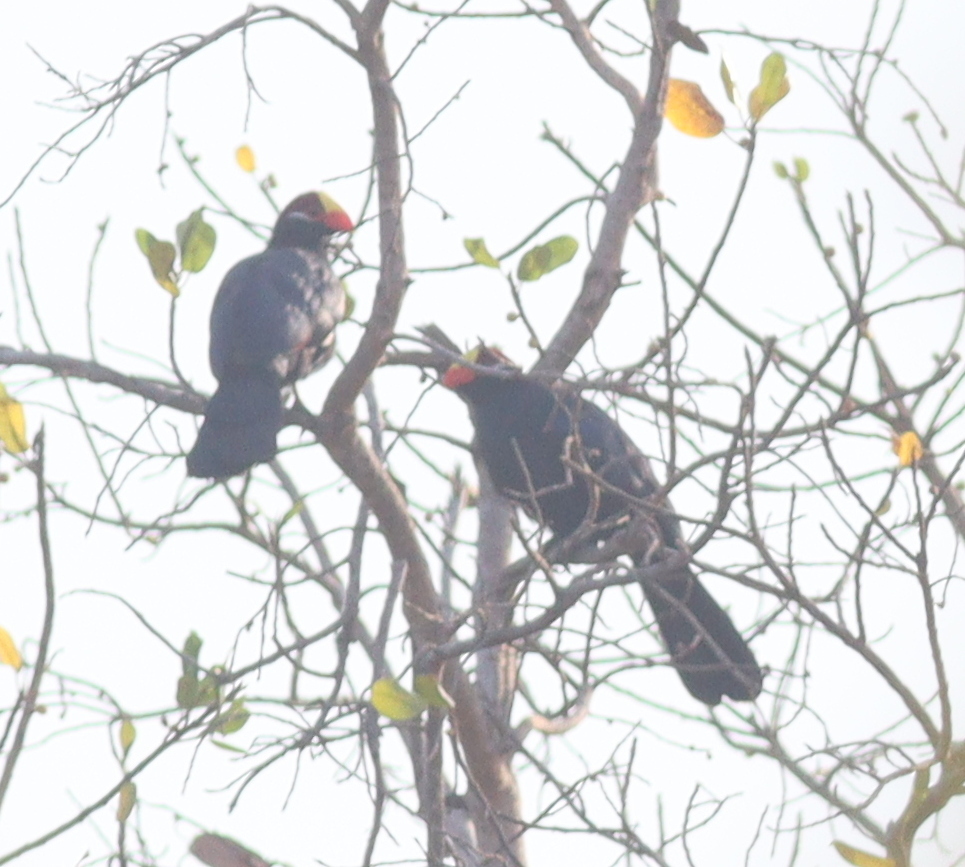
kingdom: Animalia
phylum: Chordata
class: Aves
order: Musophagiformes
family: Musophagidae
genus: Musophaga
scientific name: Musophaga violacea
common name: Violet turaco
